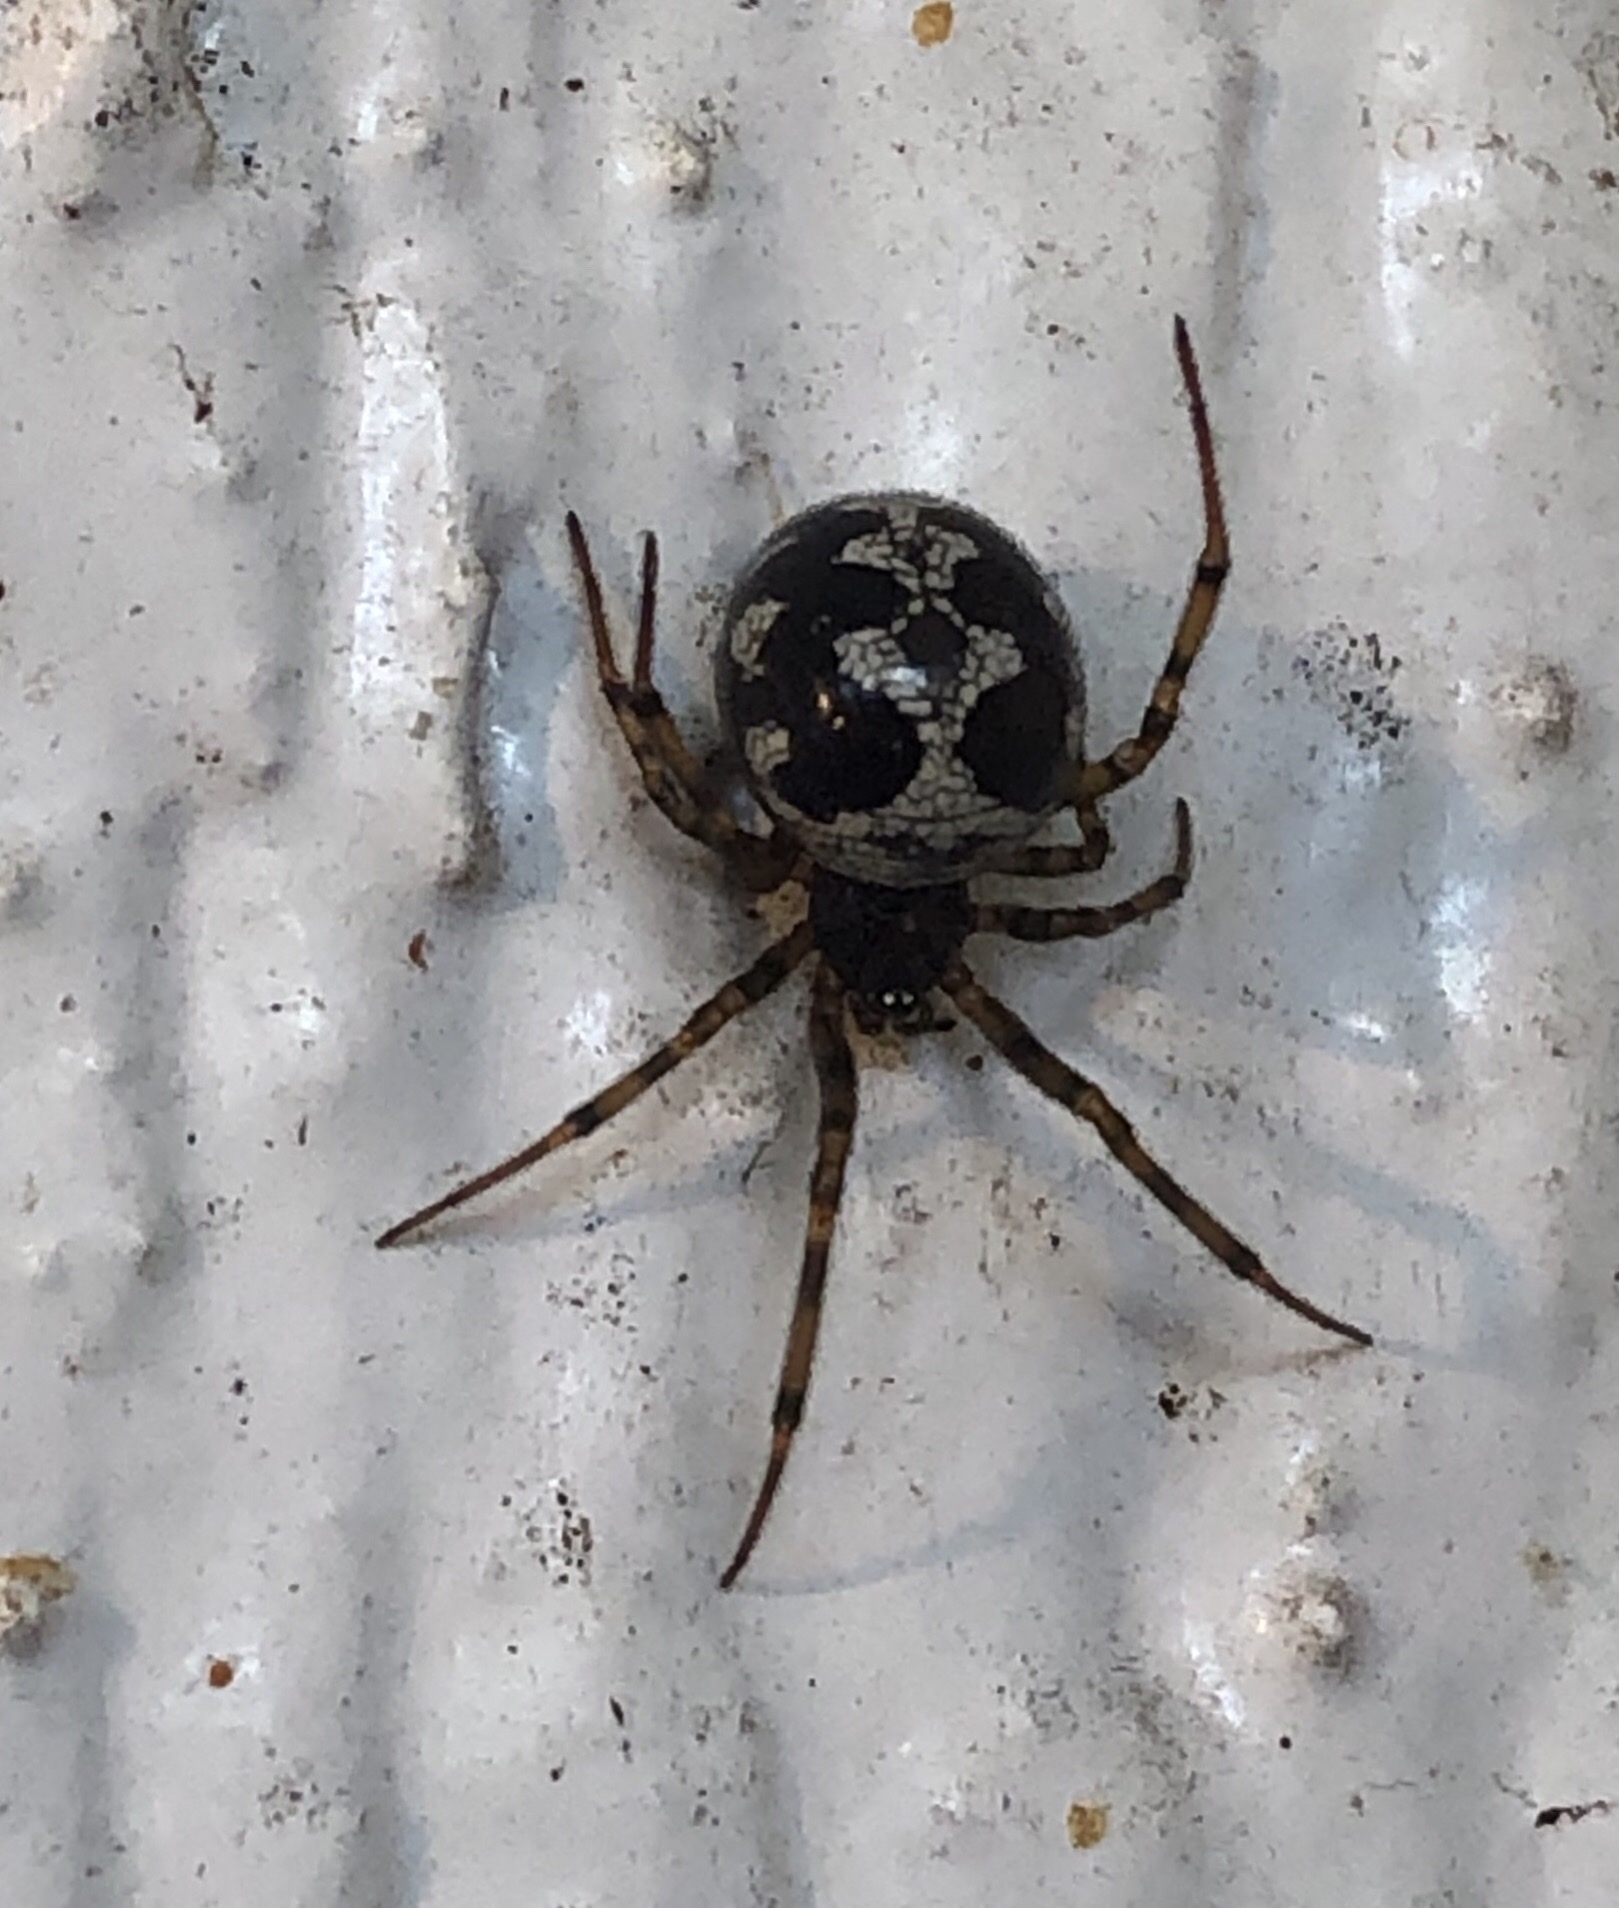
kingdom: Animalia
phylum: Arthropoda
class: Arachnida
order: Araneae
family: Theridiidae
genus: Steatoda
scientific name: Steatoda triangulosa
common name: Triangulate bud spider
